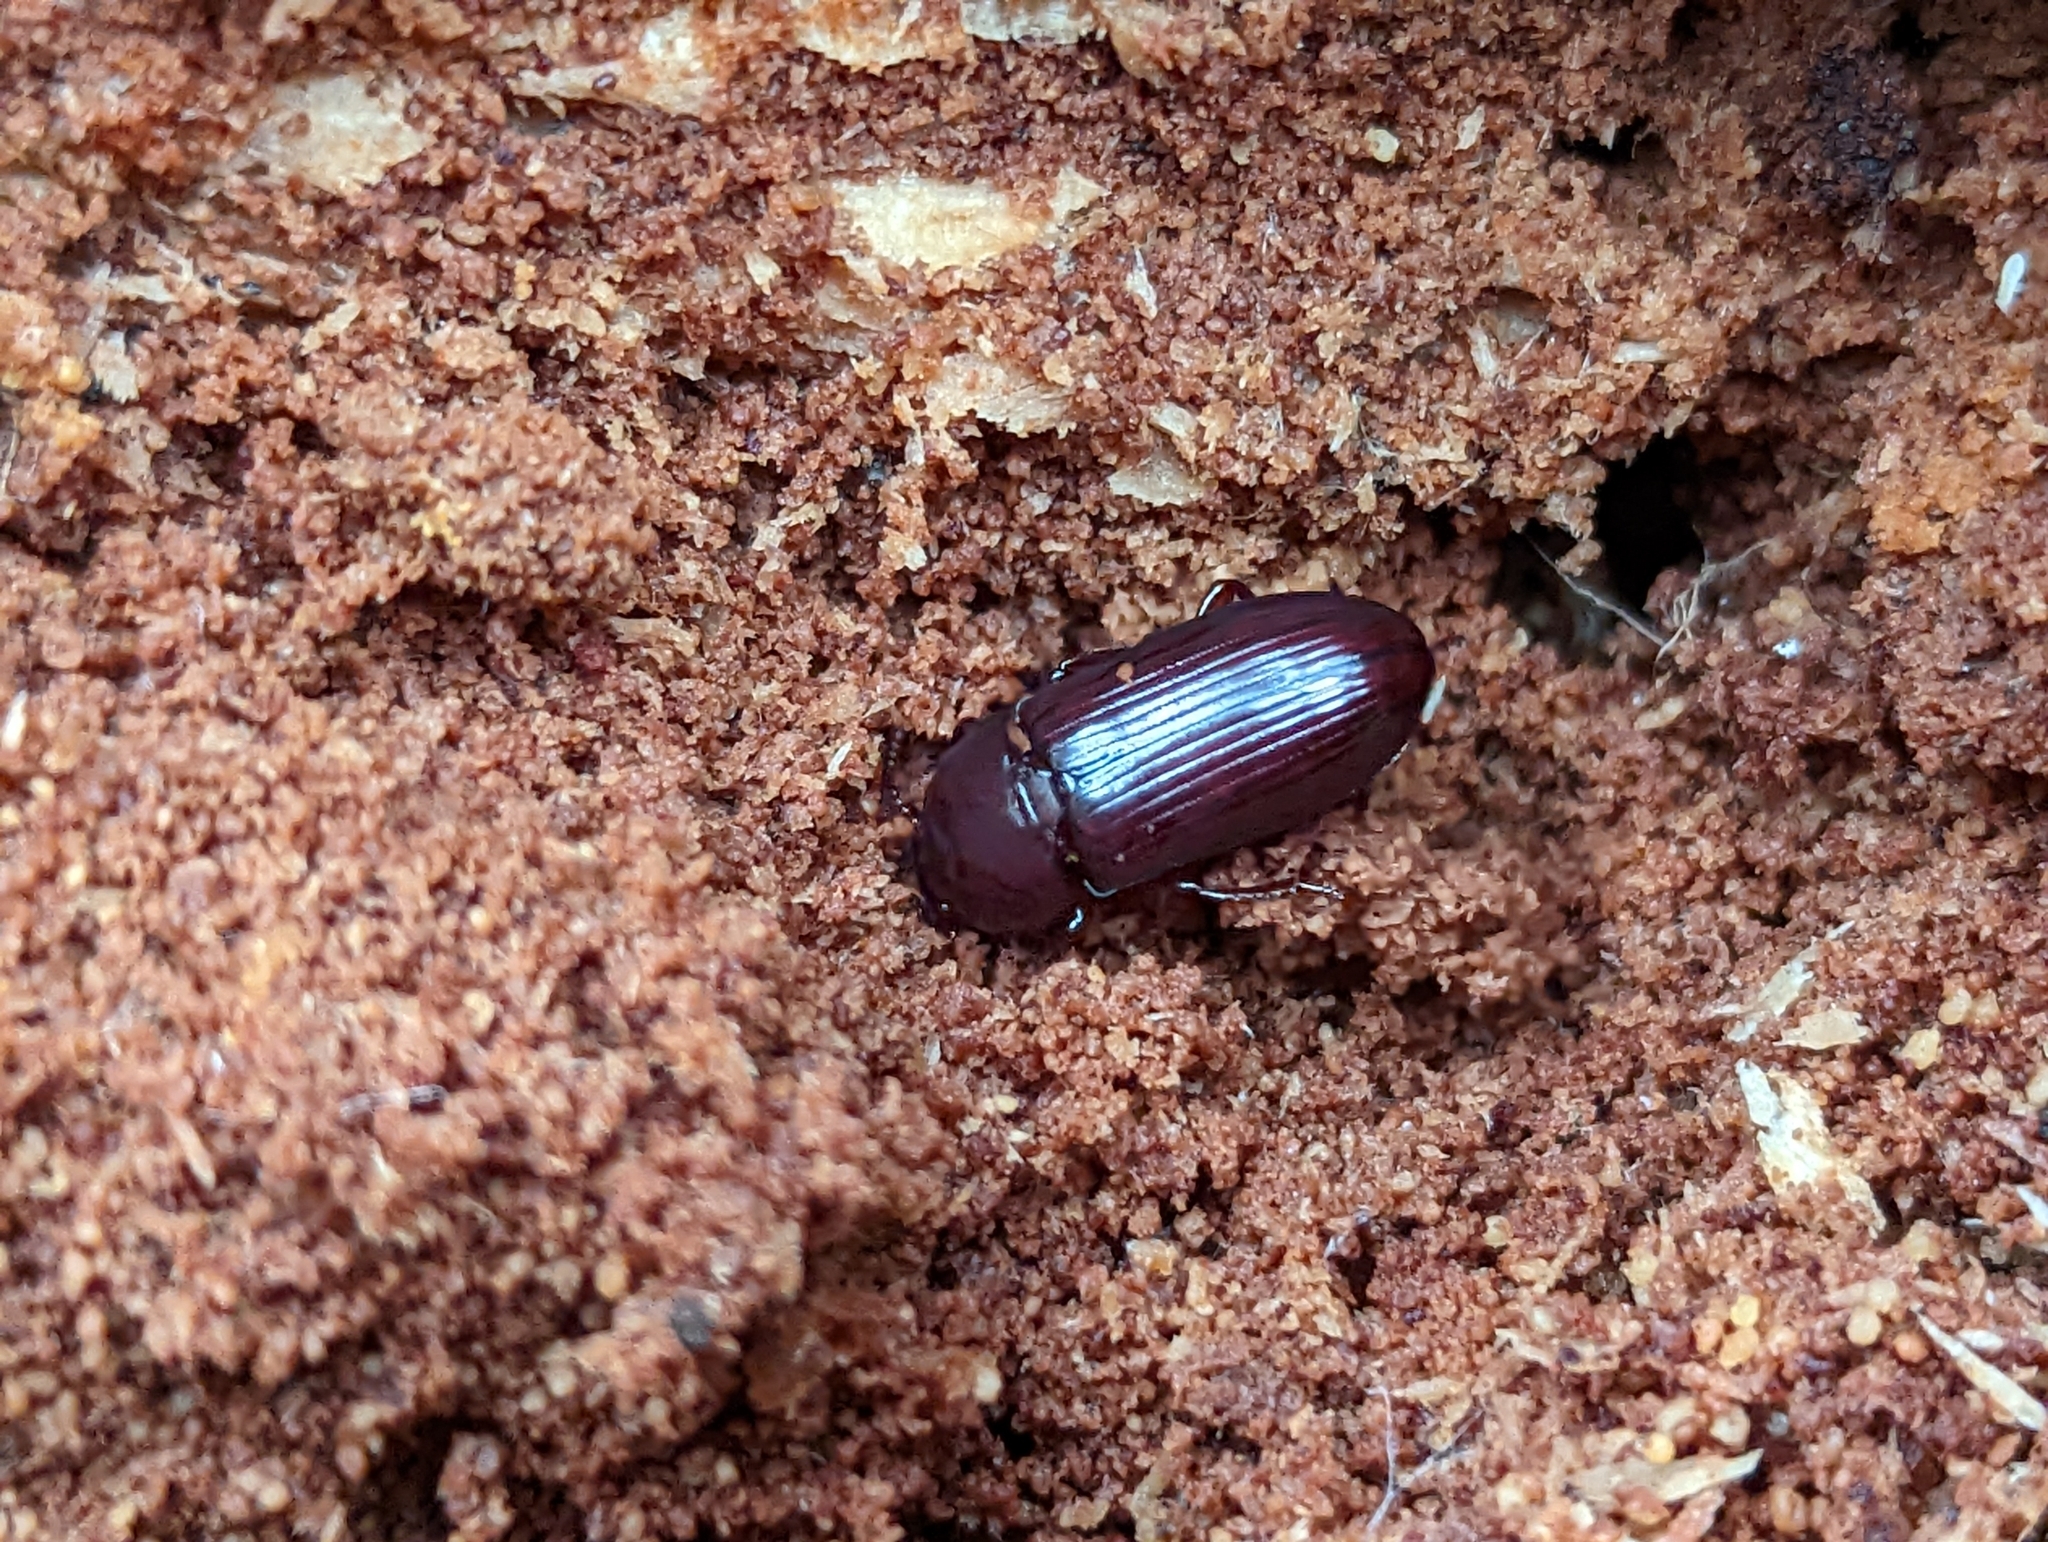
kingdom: Animalia
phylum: Arthropoda
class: Insecta
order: Coleoptera
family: Tenebrionidae
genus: Uloma
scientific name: Uloma tenebrionoides
